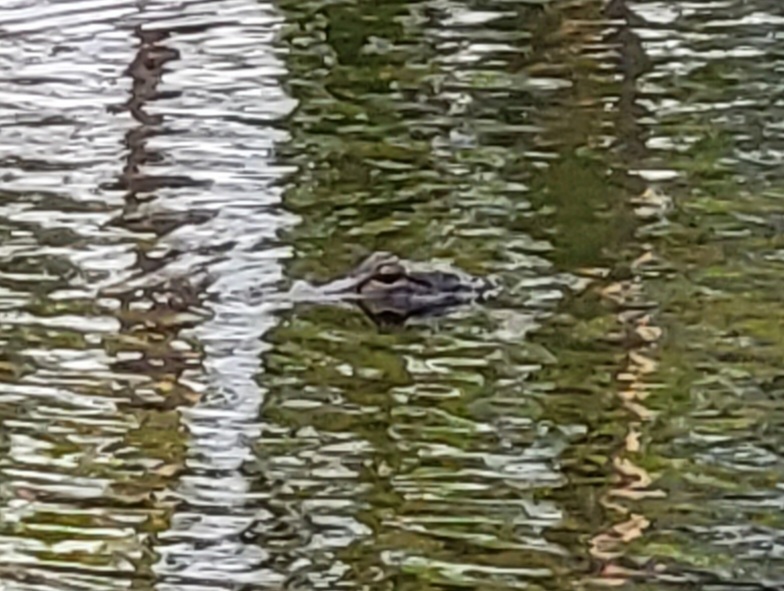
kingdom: Animalia
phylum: Chordata
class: Crocodylia
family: Alligatoridae
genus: Alligator
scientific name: Alligator mississippiensis
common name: American alligator
